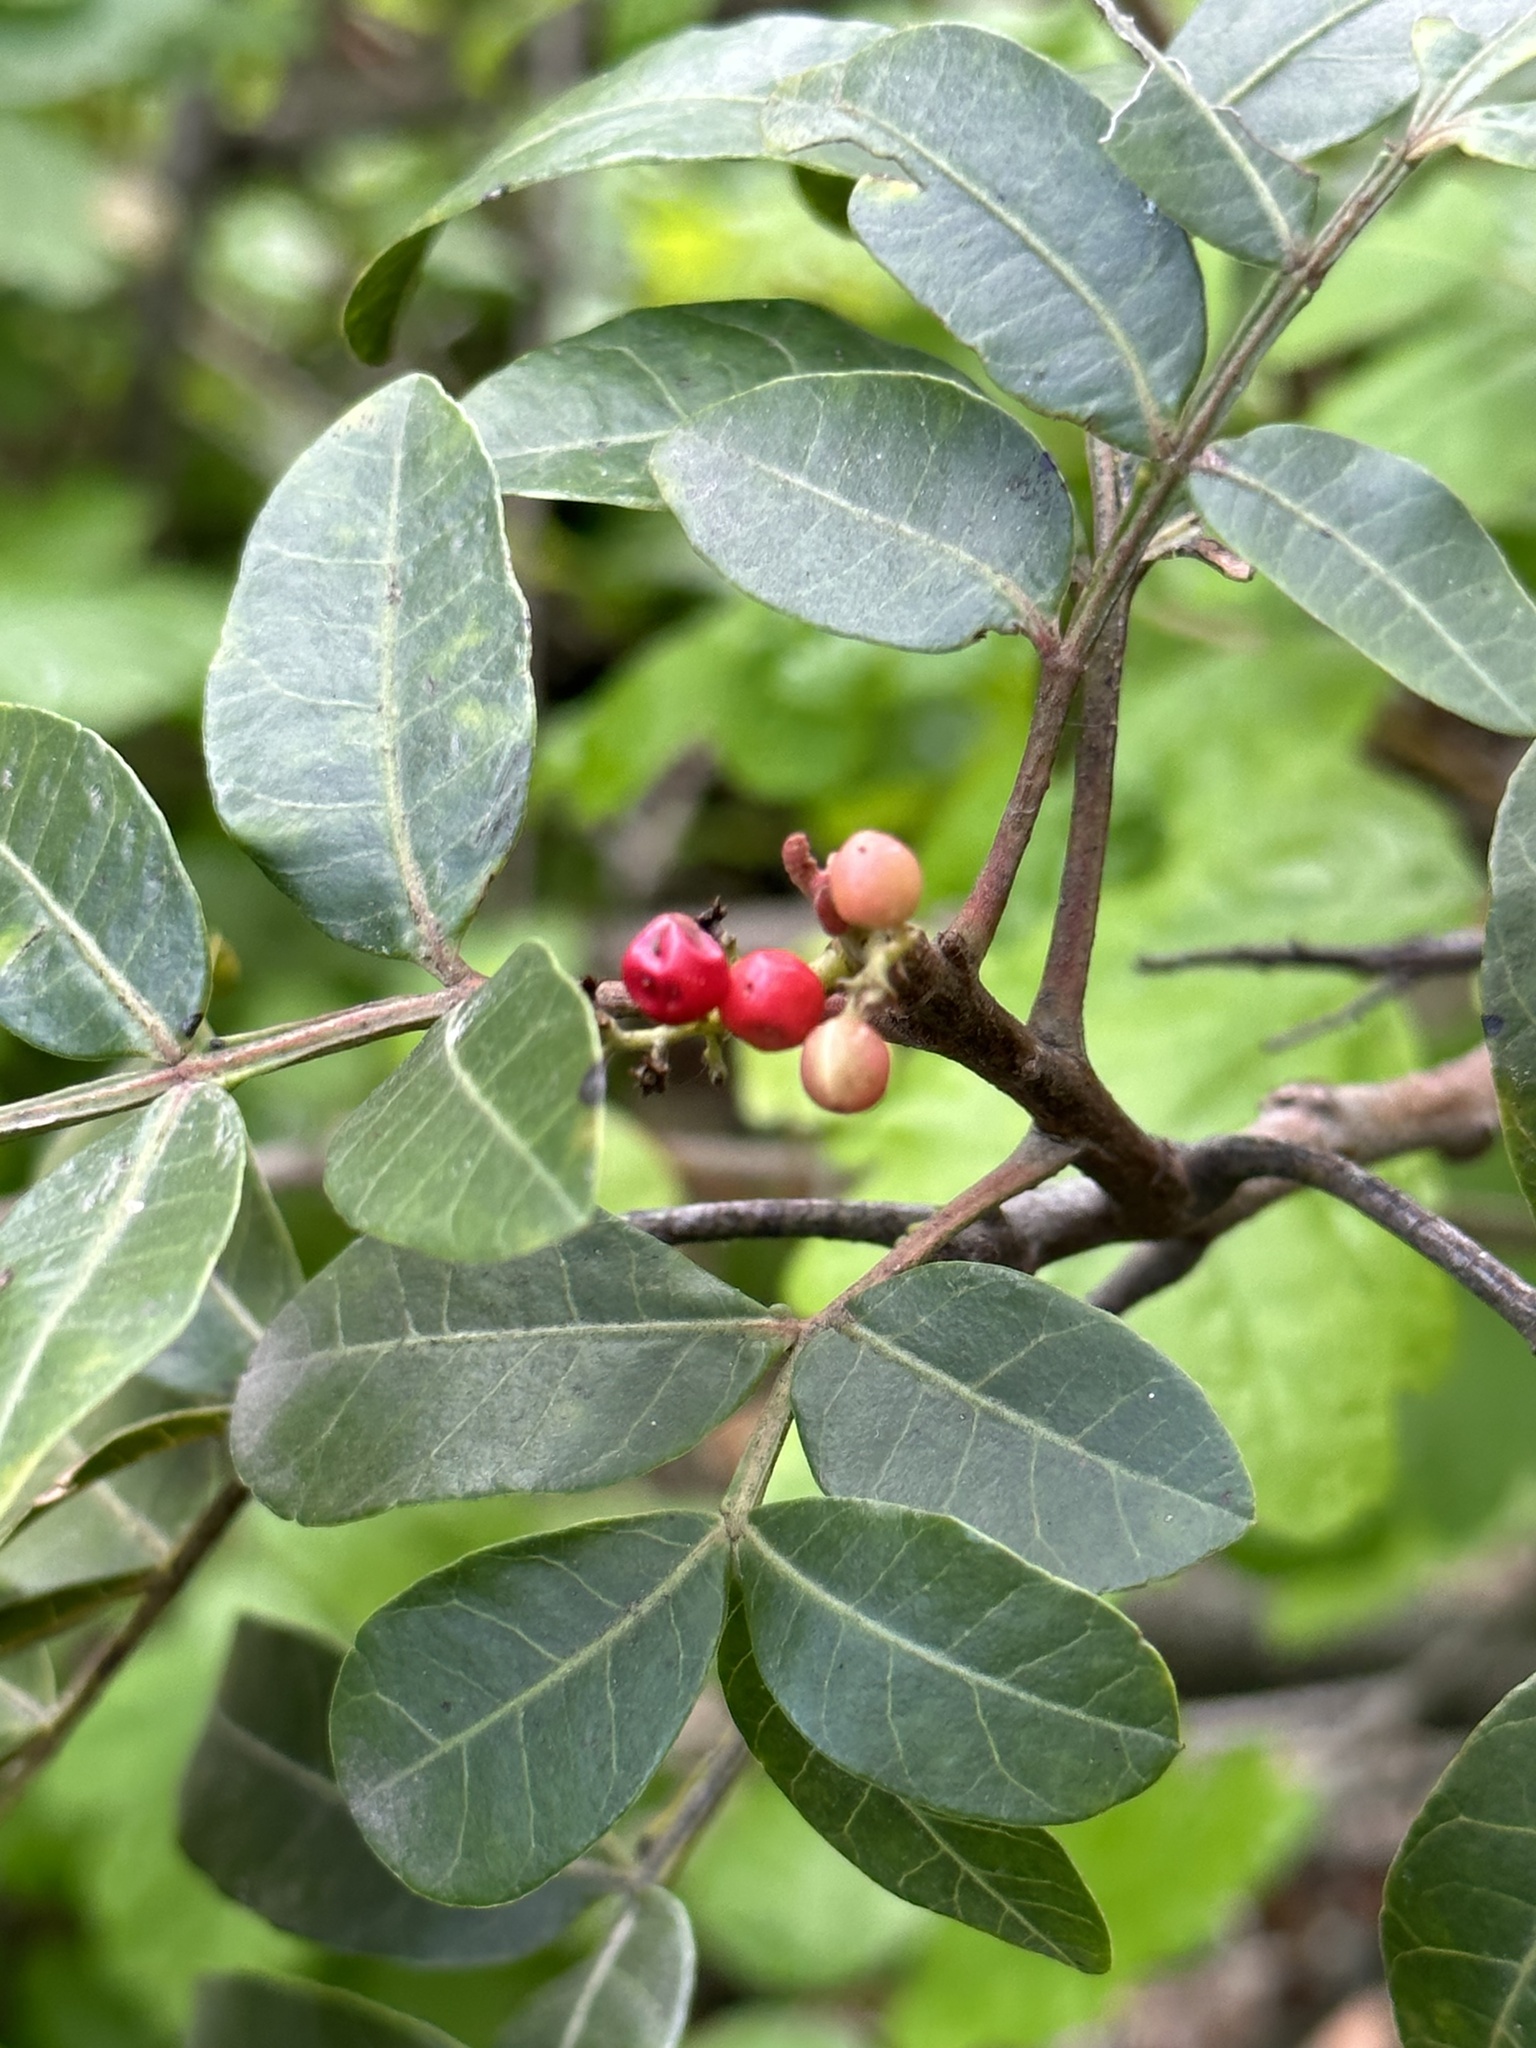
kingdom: Plantae
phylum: Tracheophyta
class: Magnoliopsida
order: Sapindales
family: Anacardiaceae
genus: Schinus
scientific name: Schinus terebinthifolia
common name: Brazilian peppertree
